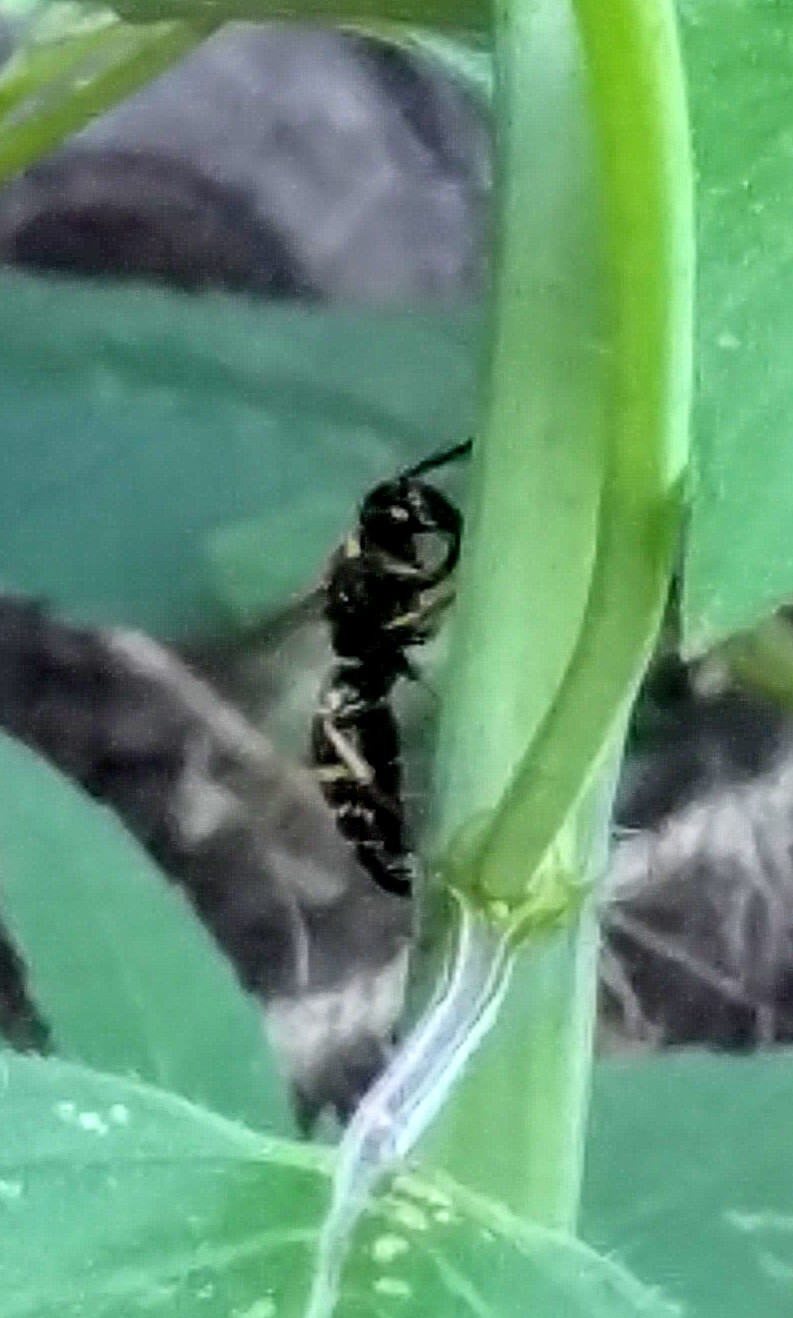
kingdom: Animalia
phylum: Arthropoda
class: Insecta
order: Hymenoptera
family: Eumenidae
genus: Euodynerus
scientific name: Euodynerus
